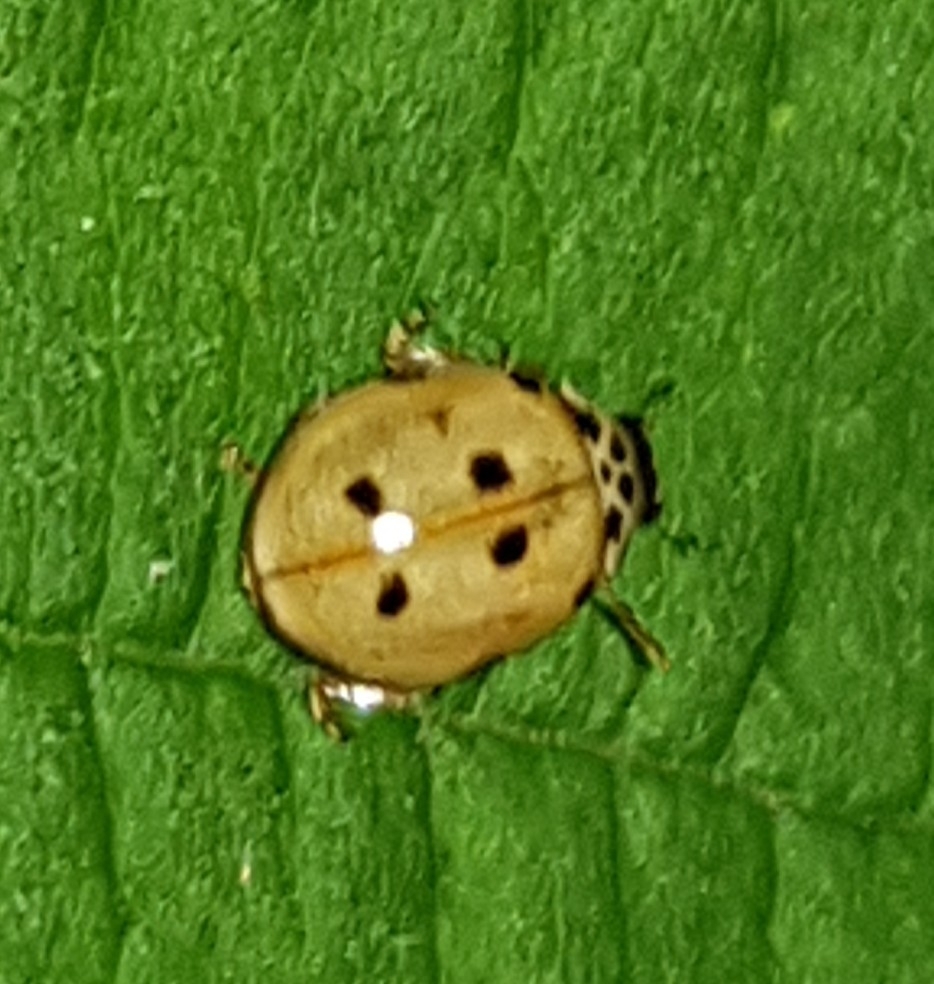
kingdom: Animalia
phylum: Arthropoda
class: Insecta
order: Coleoptera
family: Coccinellidae
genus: Adalia
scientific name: Adalia decempunctata
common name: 10-spot ladybird
